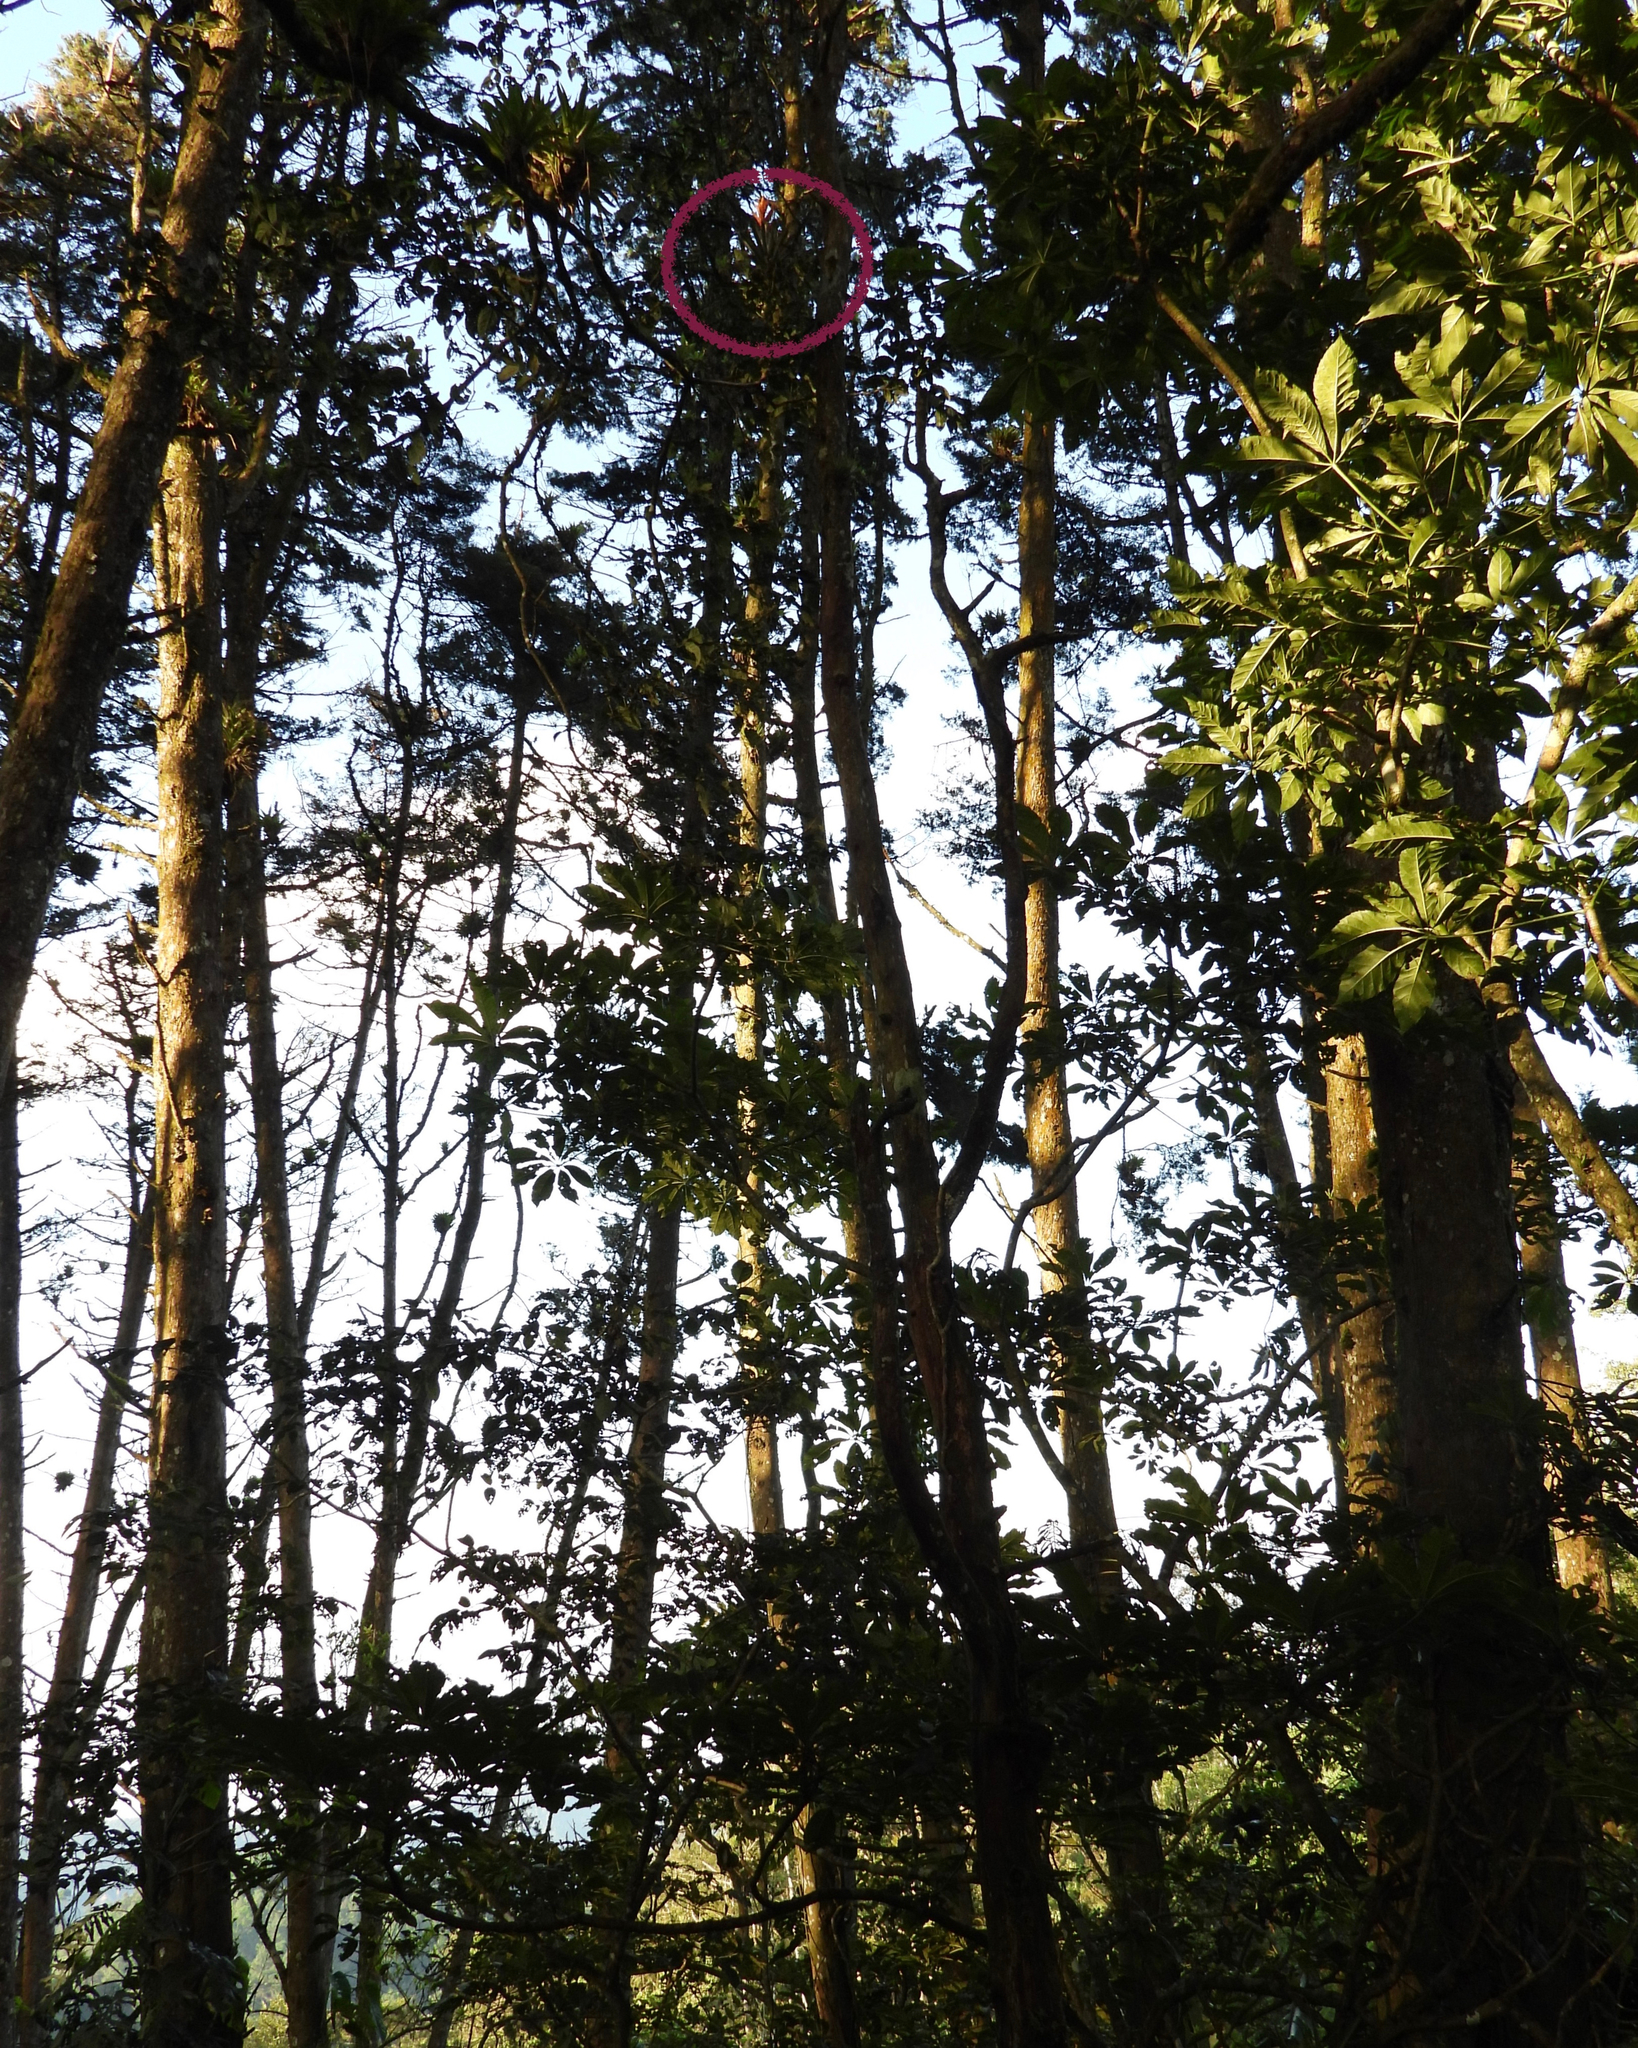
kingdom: Plantae
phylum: Tracheophyta
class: Liliopsida
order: Poales
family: Bromeliaceae
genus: Tillandsia
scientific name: Tillandsia ponderosa
